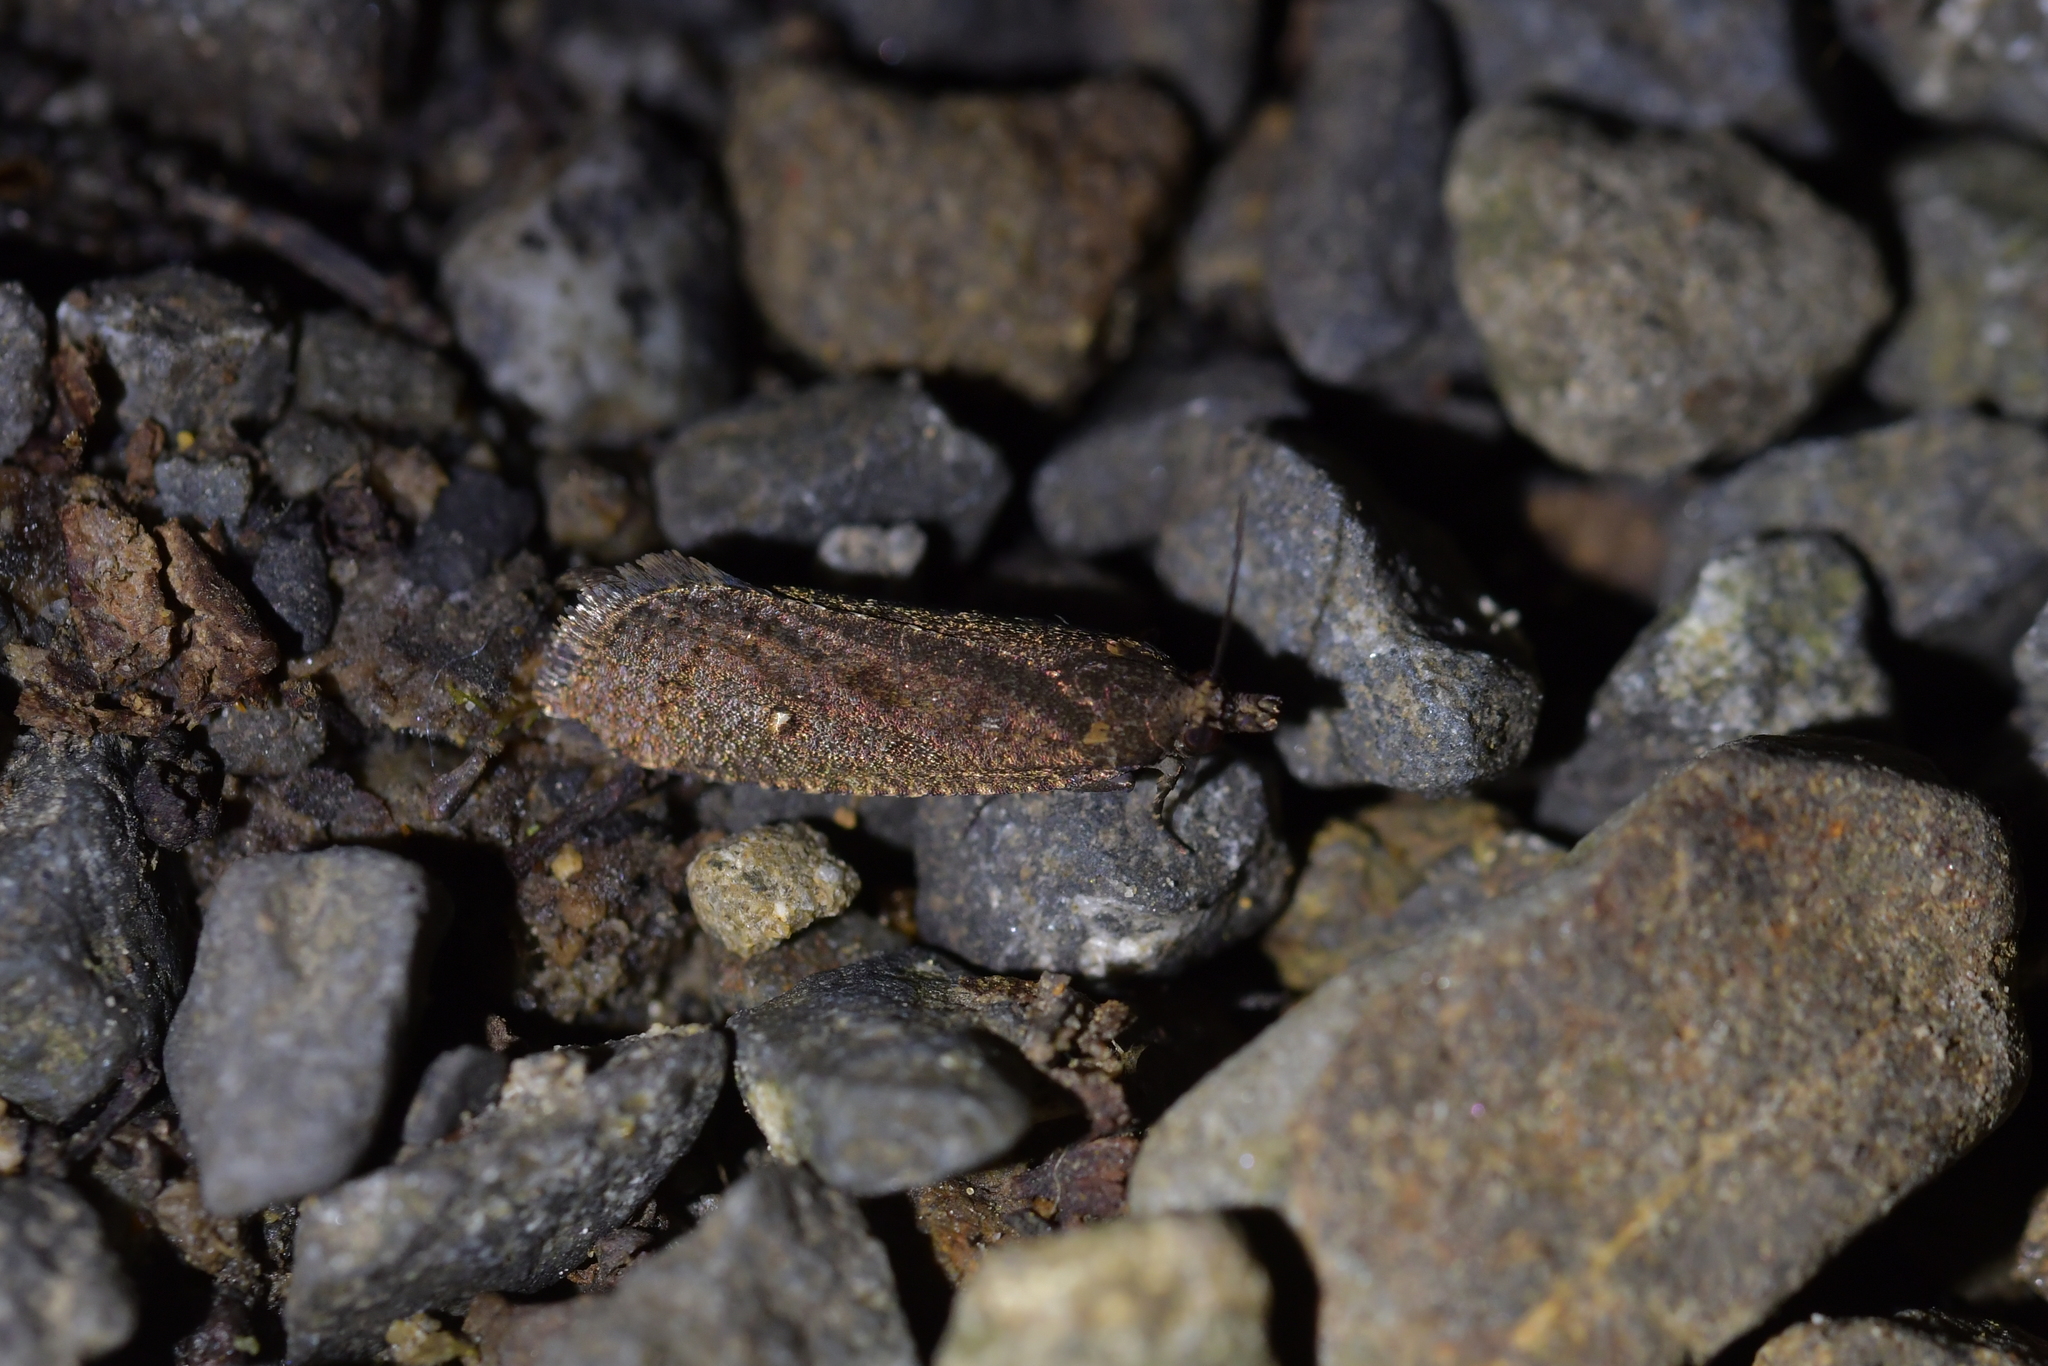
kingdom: Animalia
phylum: Arthropoda
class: Insecta
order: Lepidoptera
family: Tortricidae
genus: Cryptaspasma
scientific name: Cryptaspasma querula
